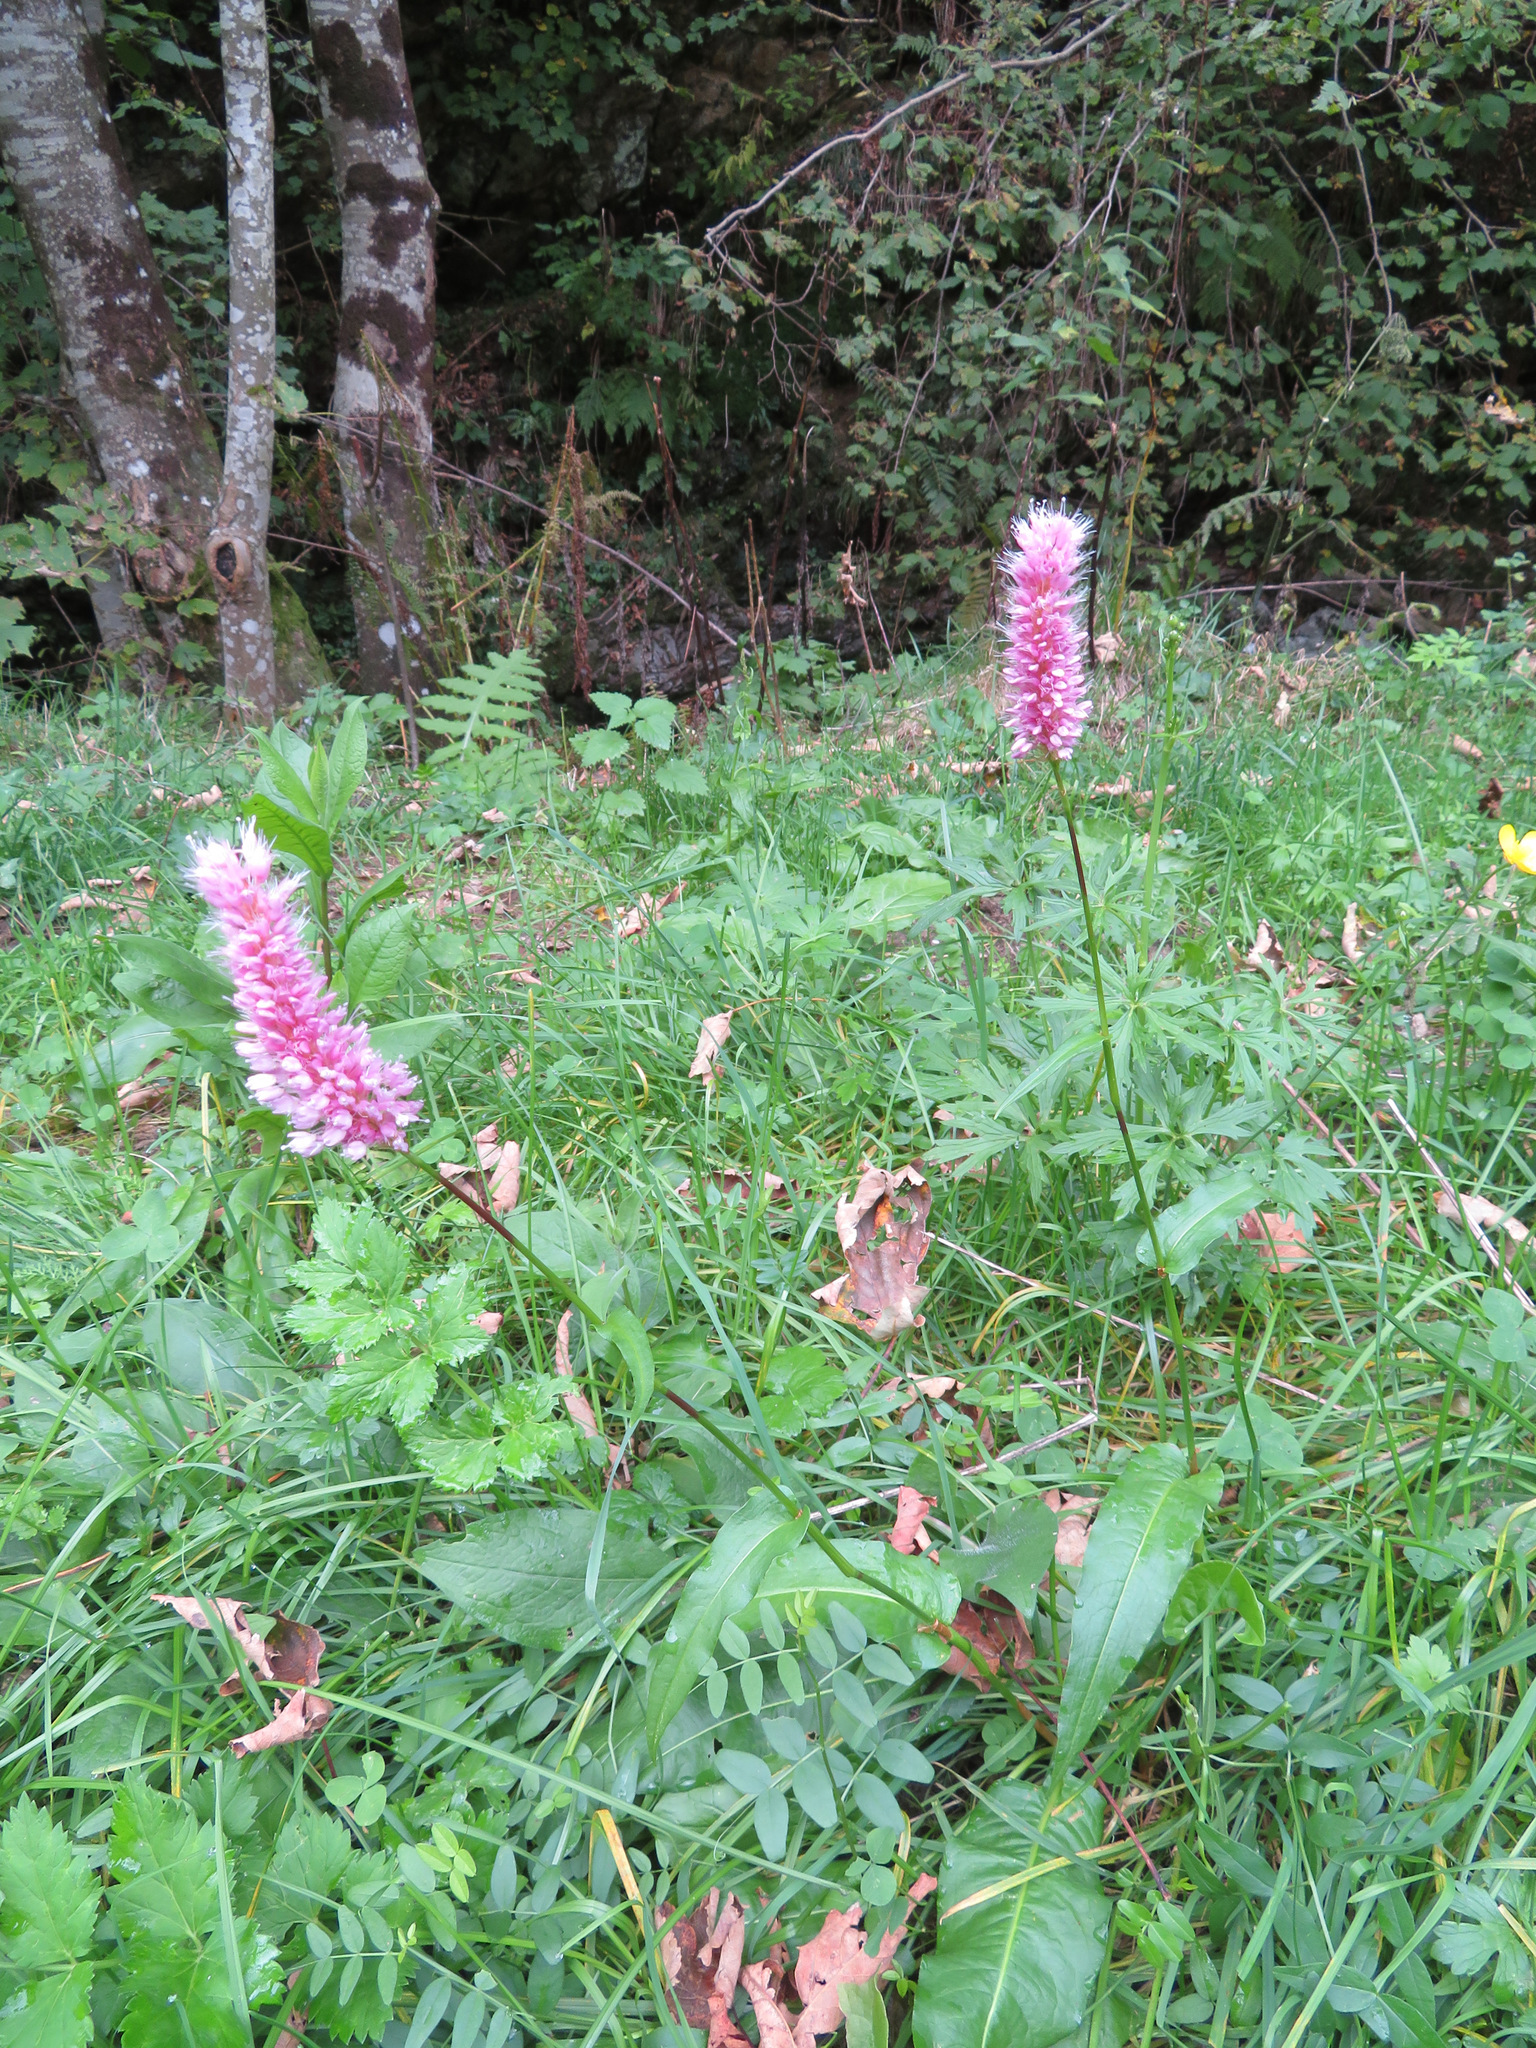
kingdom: Plantae
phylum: Tracheophyta
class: Magnoliopsida
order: Caryophyllales
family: Polygonaceae
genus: Bistorta
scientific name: Bistorta officinalis
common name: Common bistort
